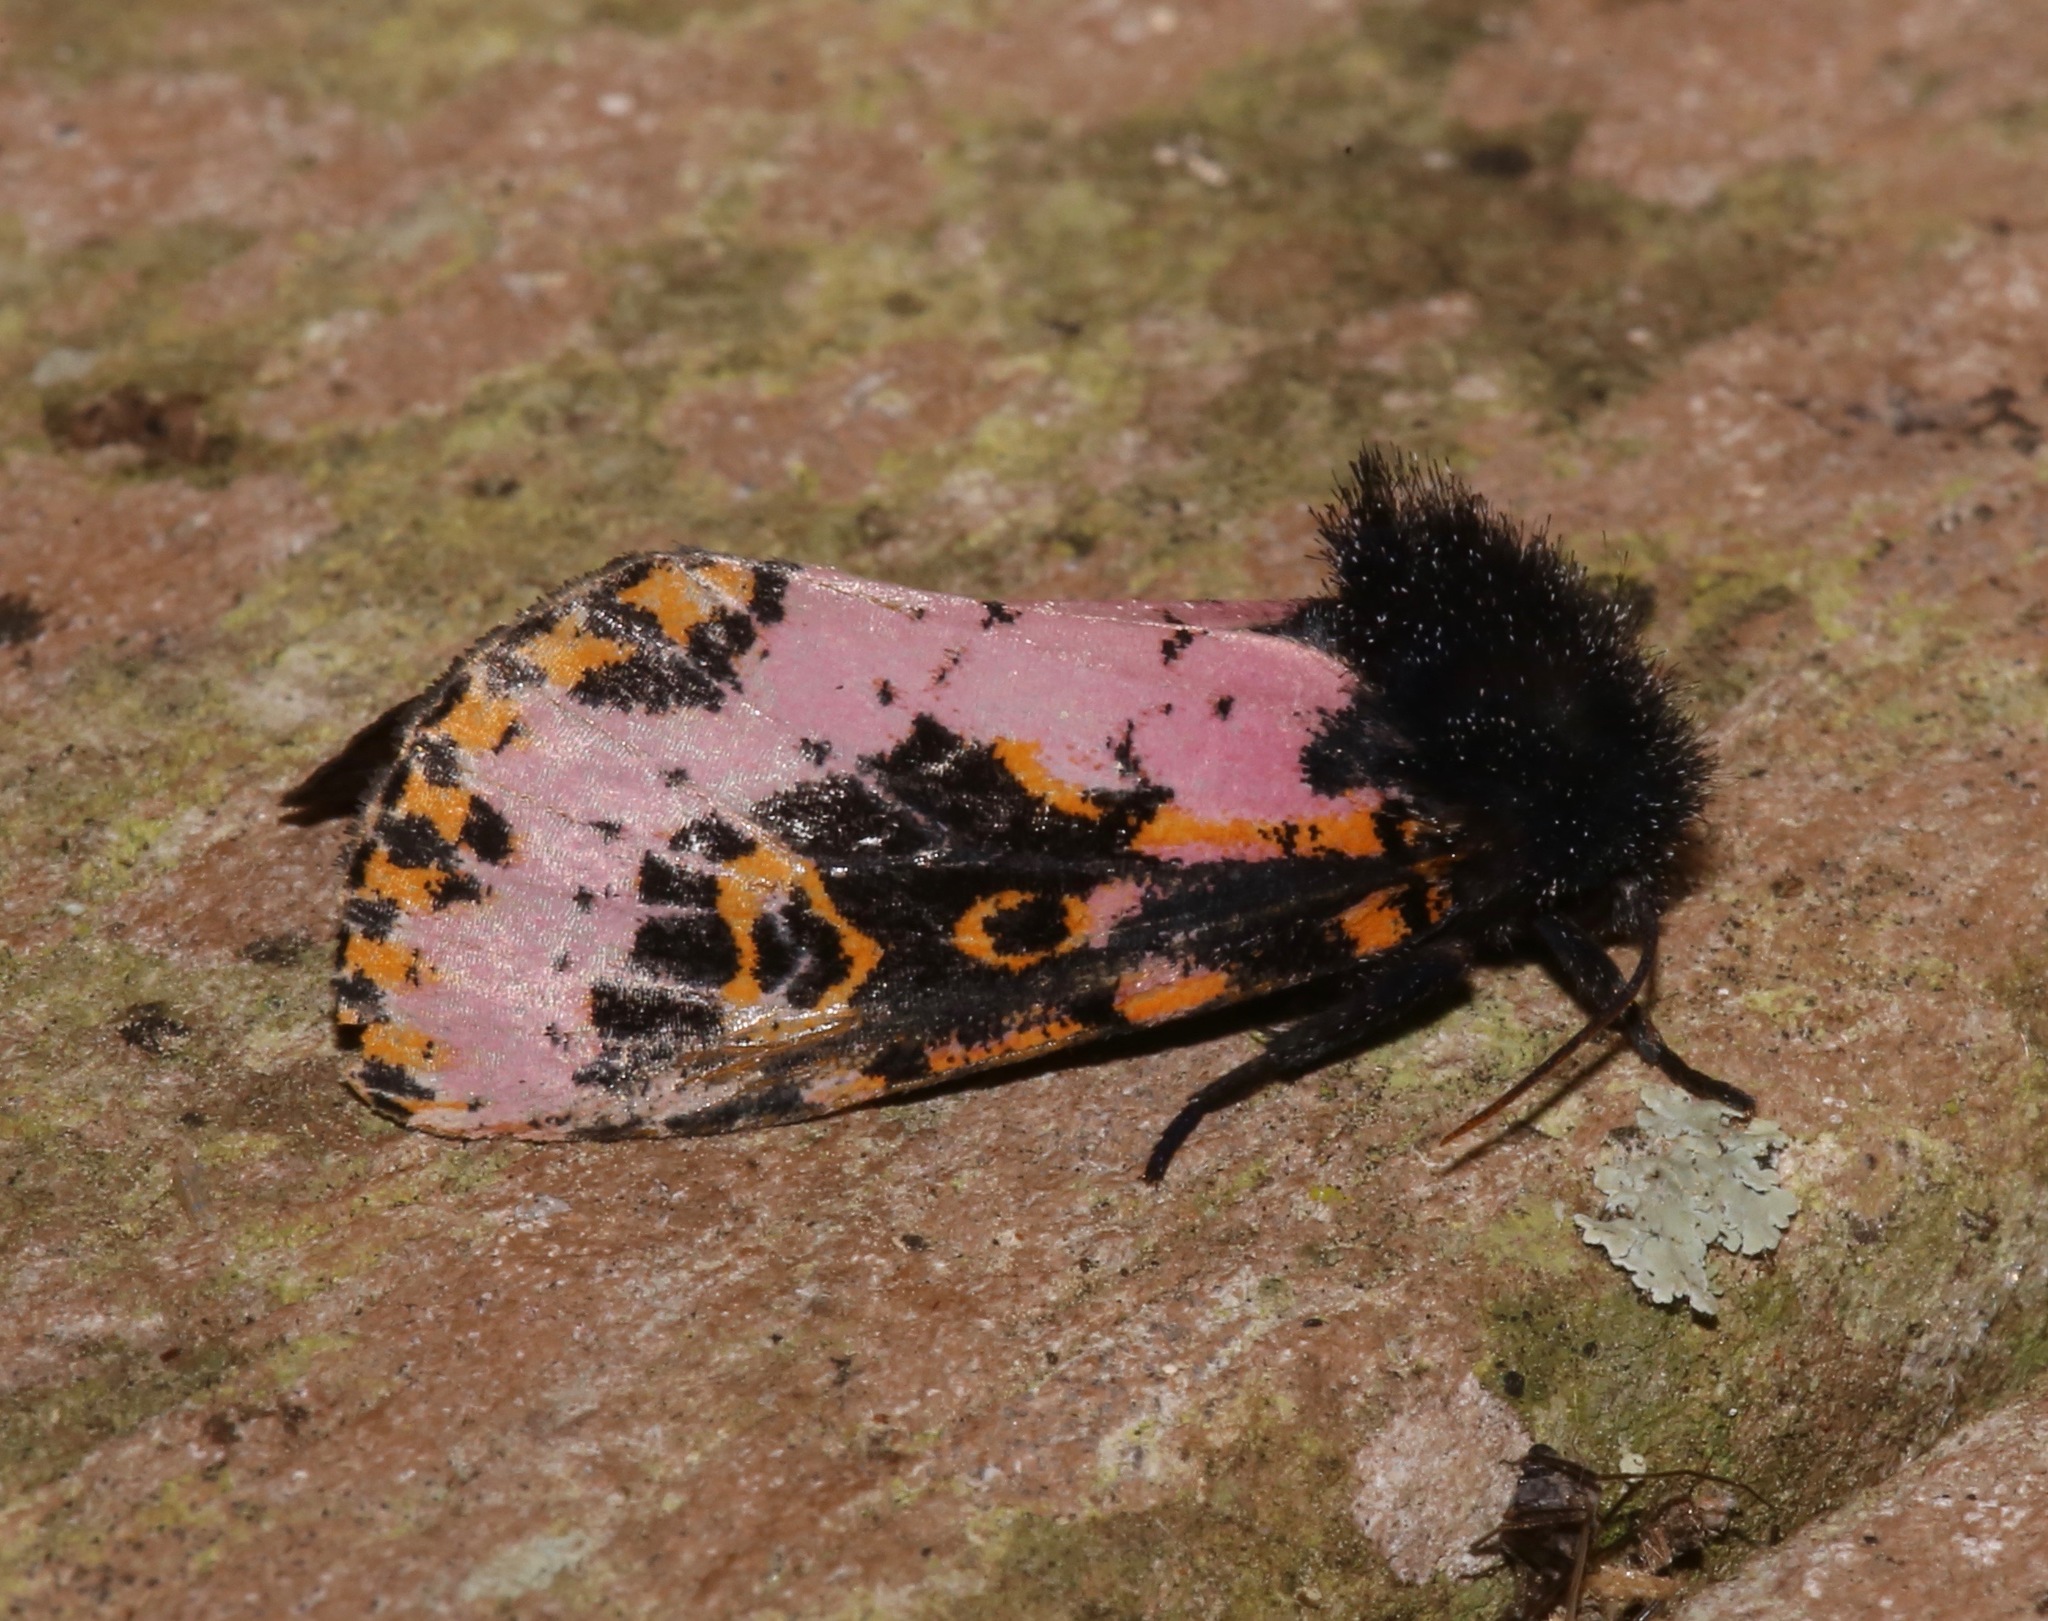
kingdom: Animalia
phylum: Arthropoda
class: Insecta
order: Lepidoptera
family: Noctuidae
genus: Xanthopastis
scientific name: Xanthopastis regnatrix
